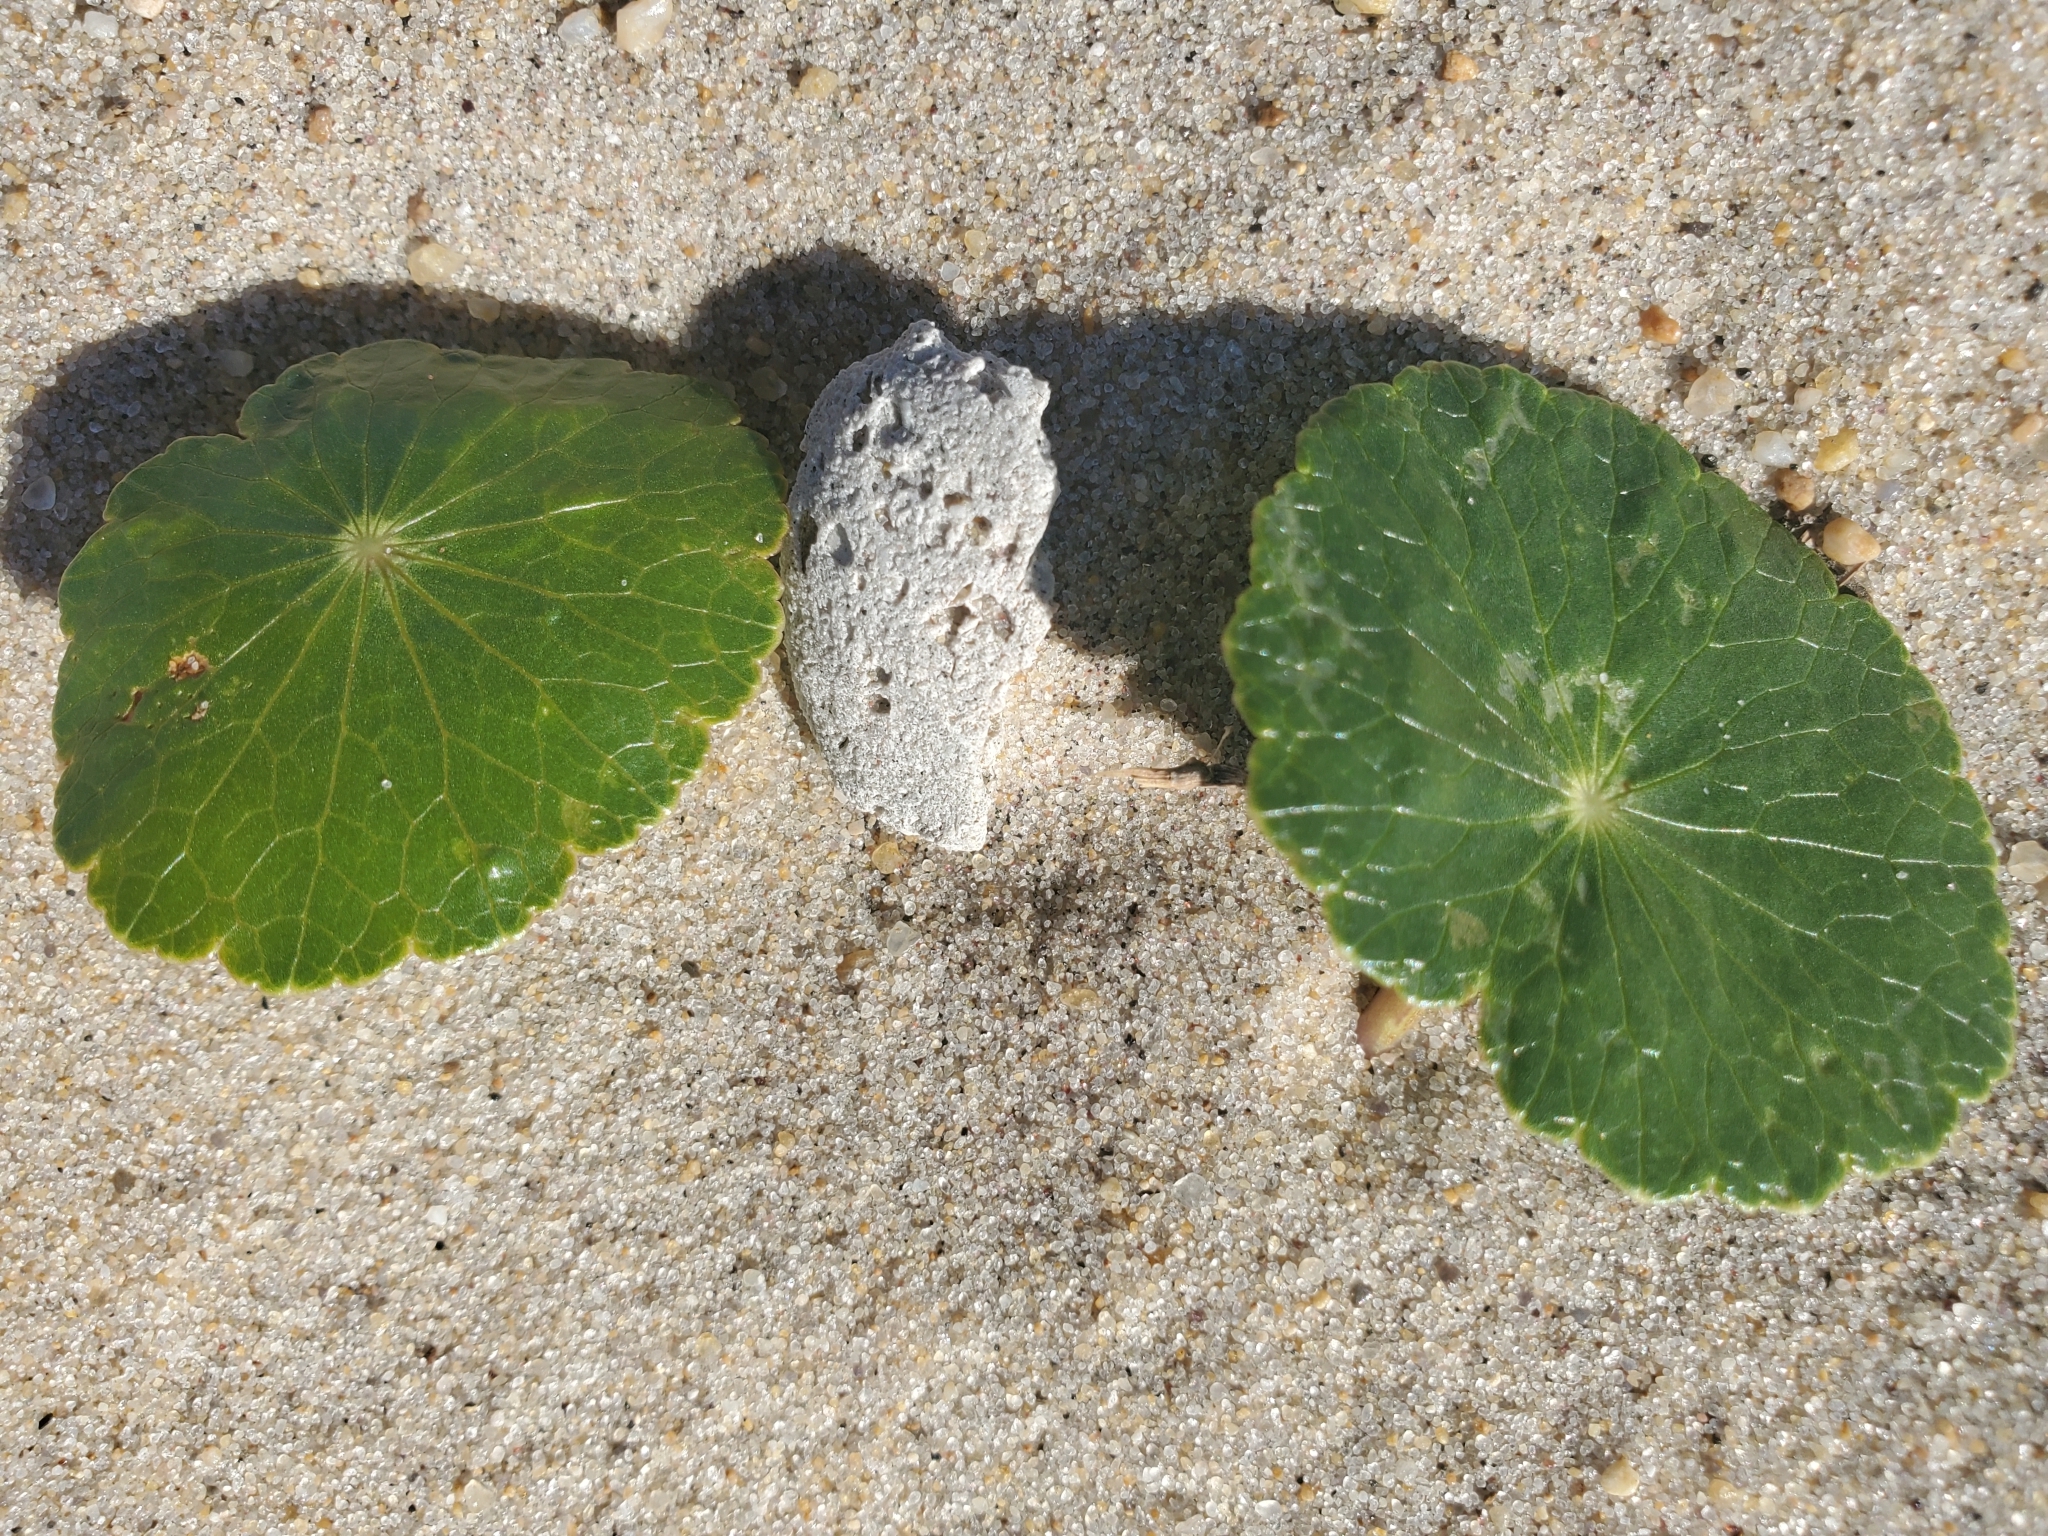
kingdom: Plantae
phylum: Tracheophyta
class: Magnoliopsida
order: Apiales
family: Araliaceae
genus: Hydrocotyle
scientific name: Hydrocotyle bonariensis
